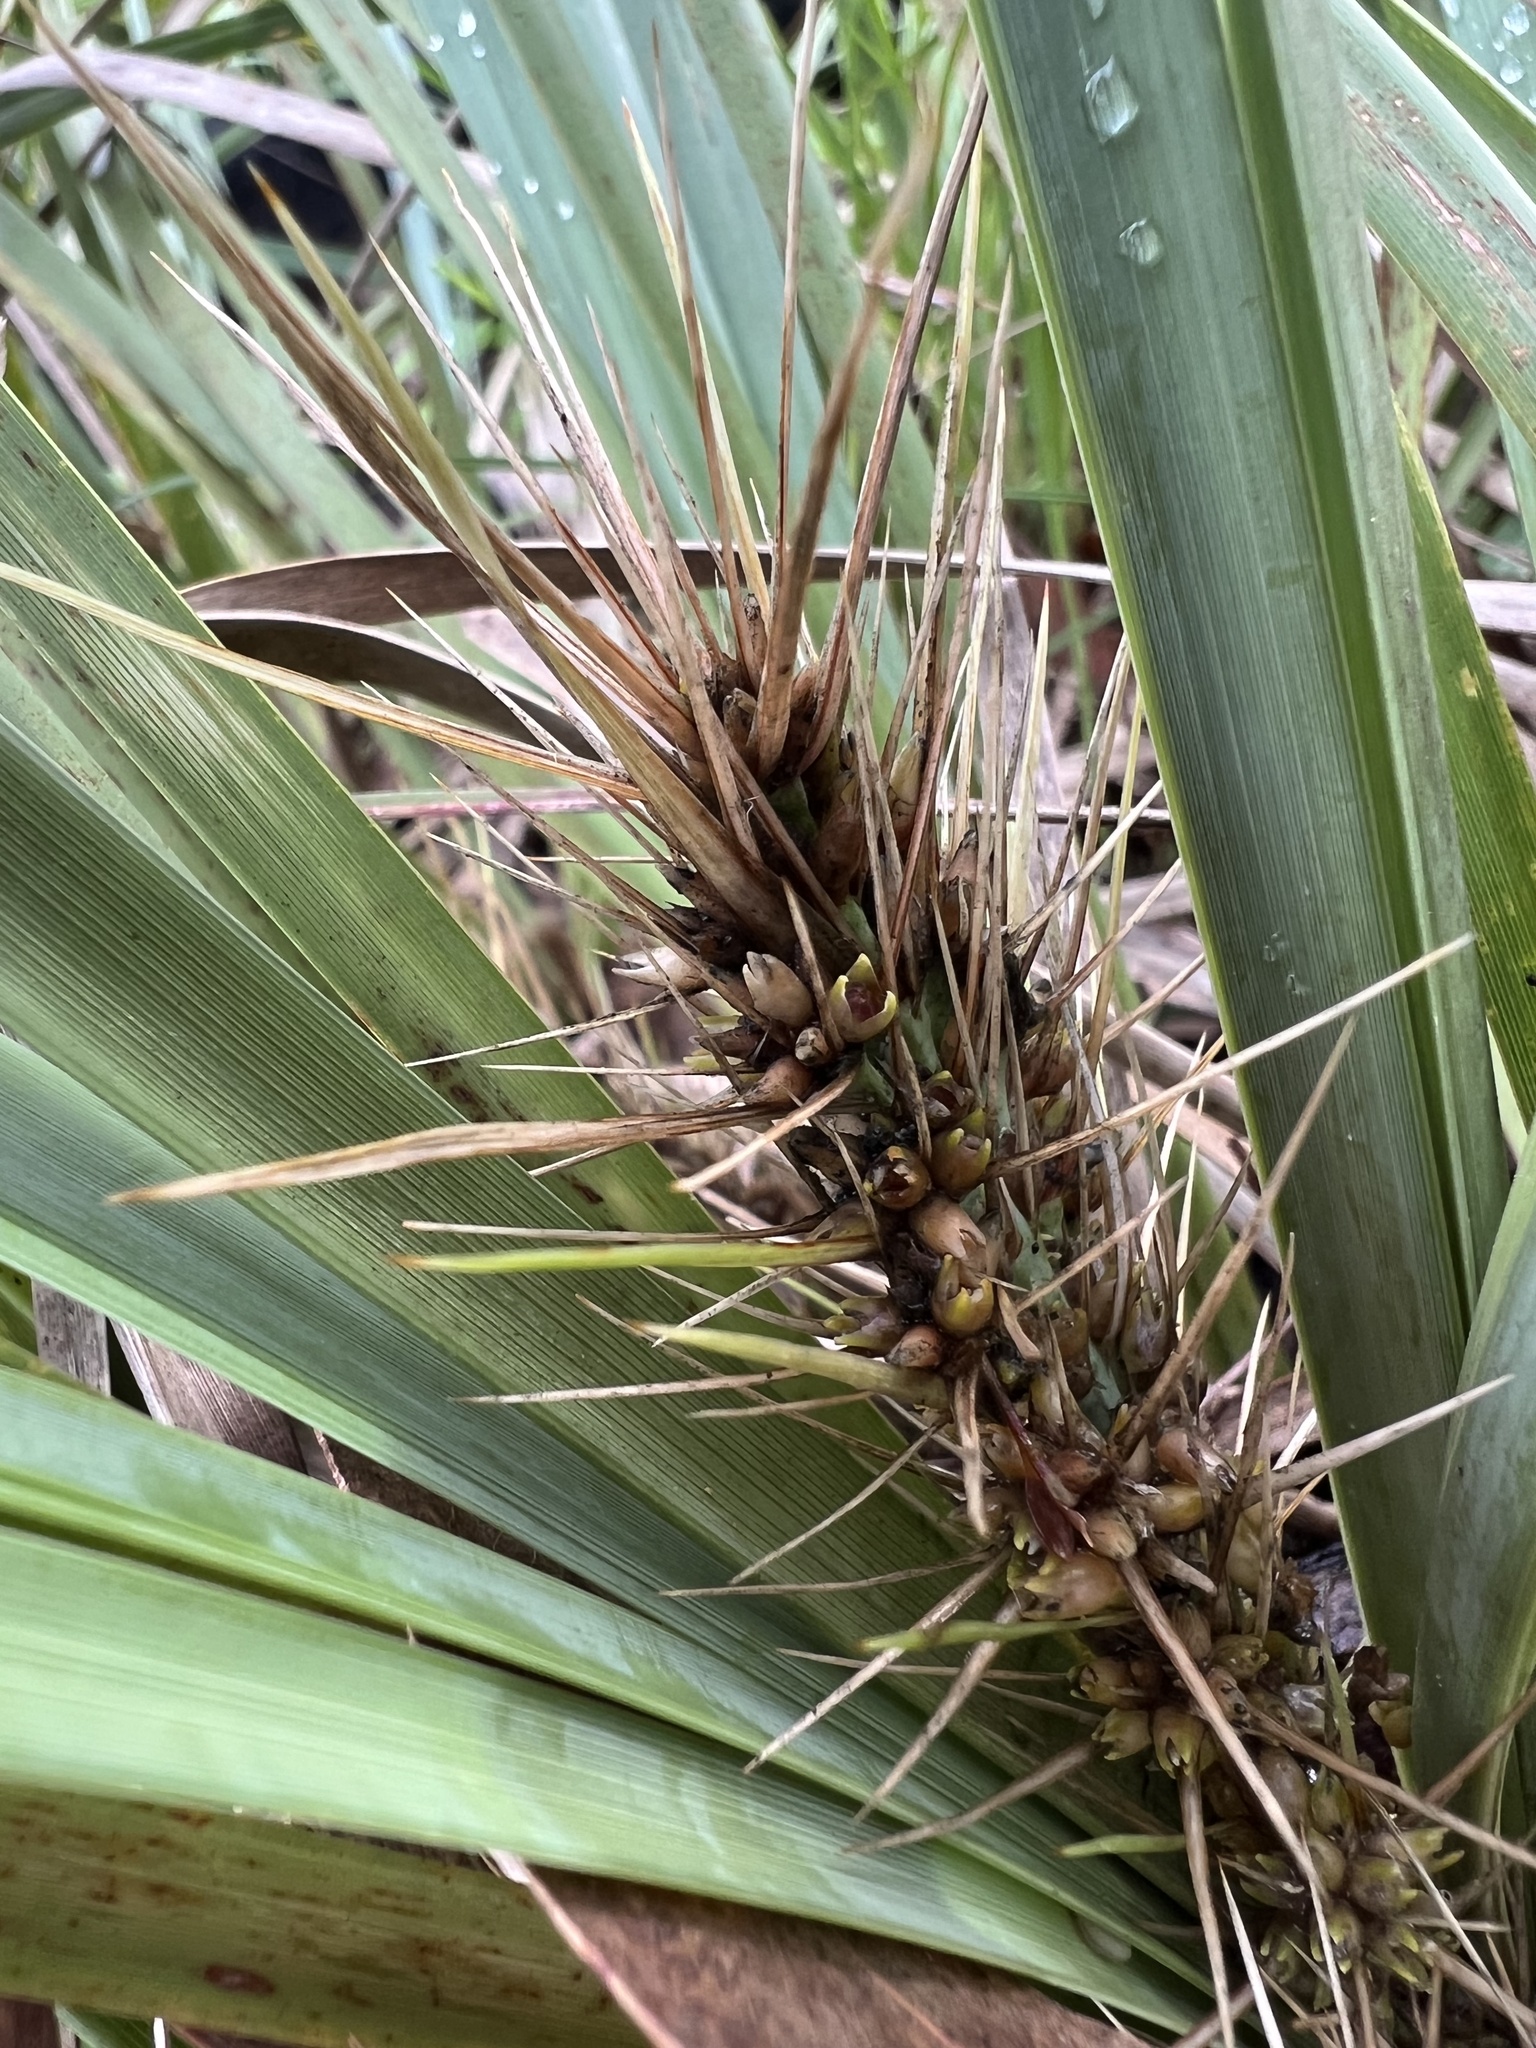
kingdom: Plantae
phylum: Tracheophyta
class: Liliopsida
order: Asparagales
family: Asparagaceae
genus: Lomandra
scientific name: Lomandra longifolia
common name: Longleaf mat-rush
